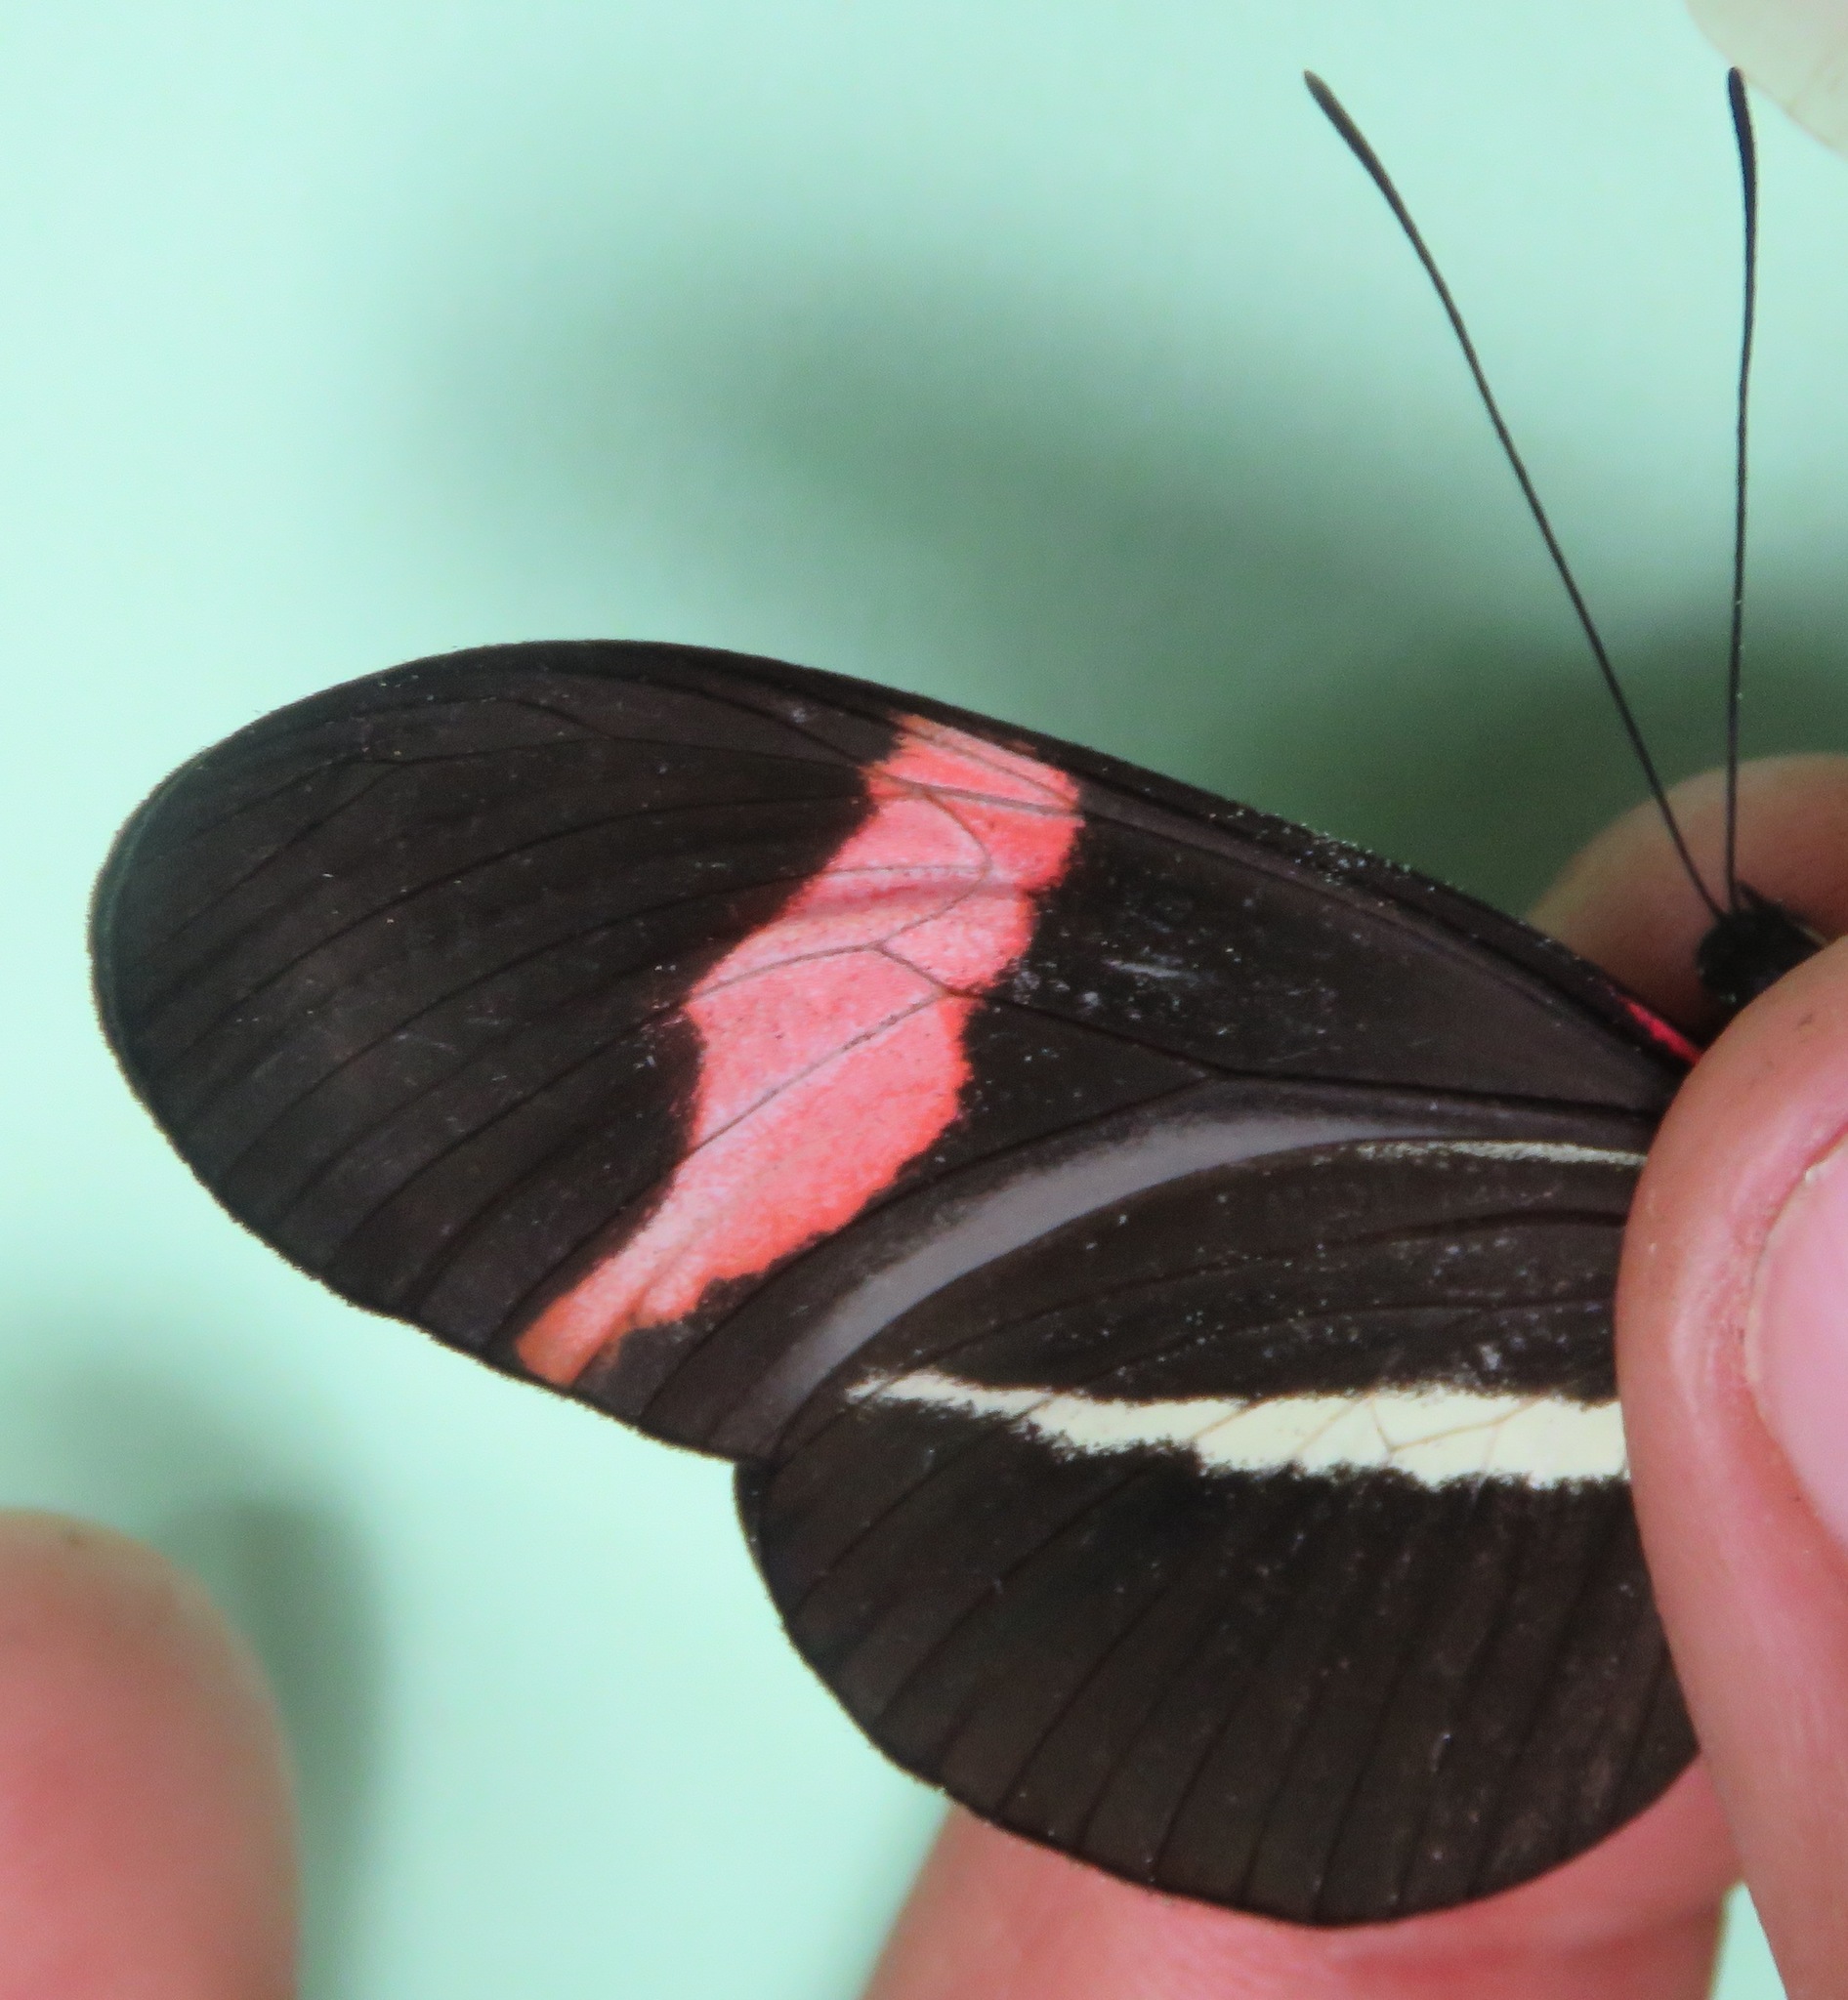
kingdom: Animalia
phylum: Arthropoda
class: Insecta
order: Lepidoptera
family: Nymphalidae
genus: Tirumala
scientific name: Tirumala petiverana
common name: Blue monarch
